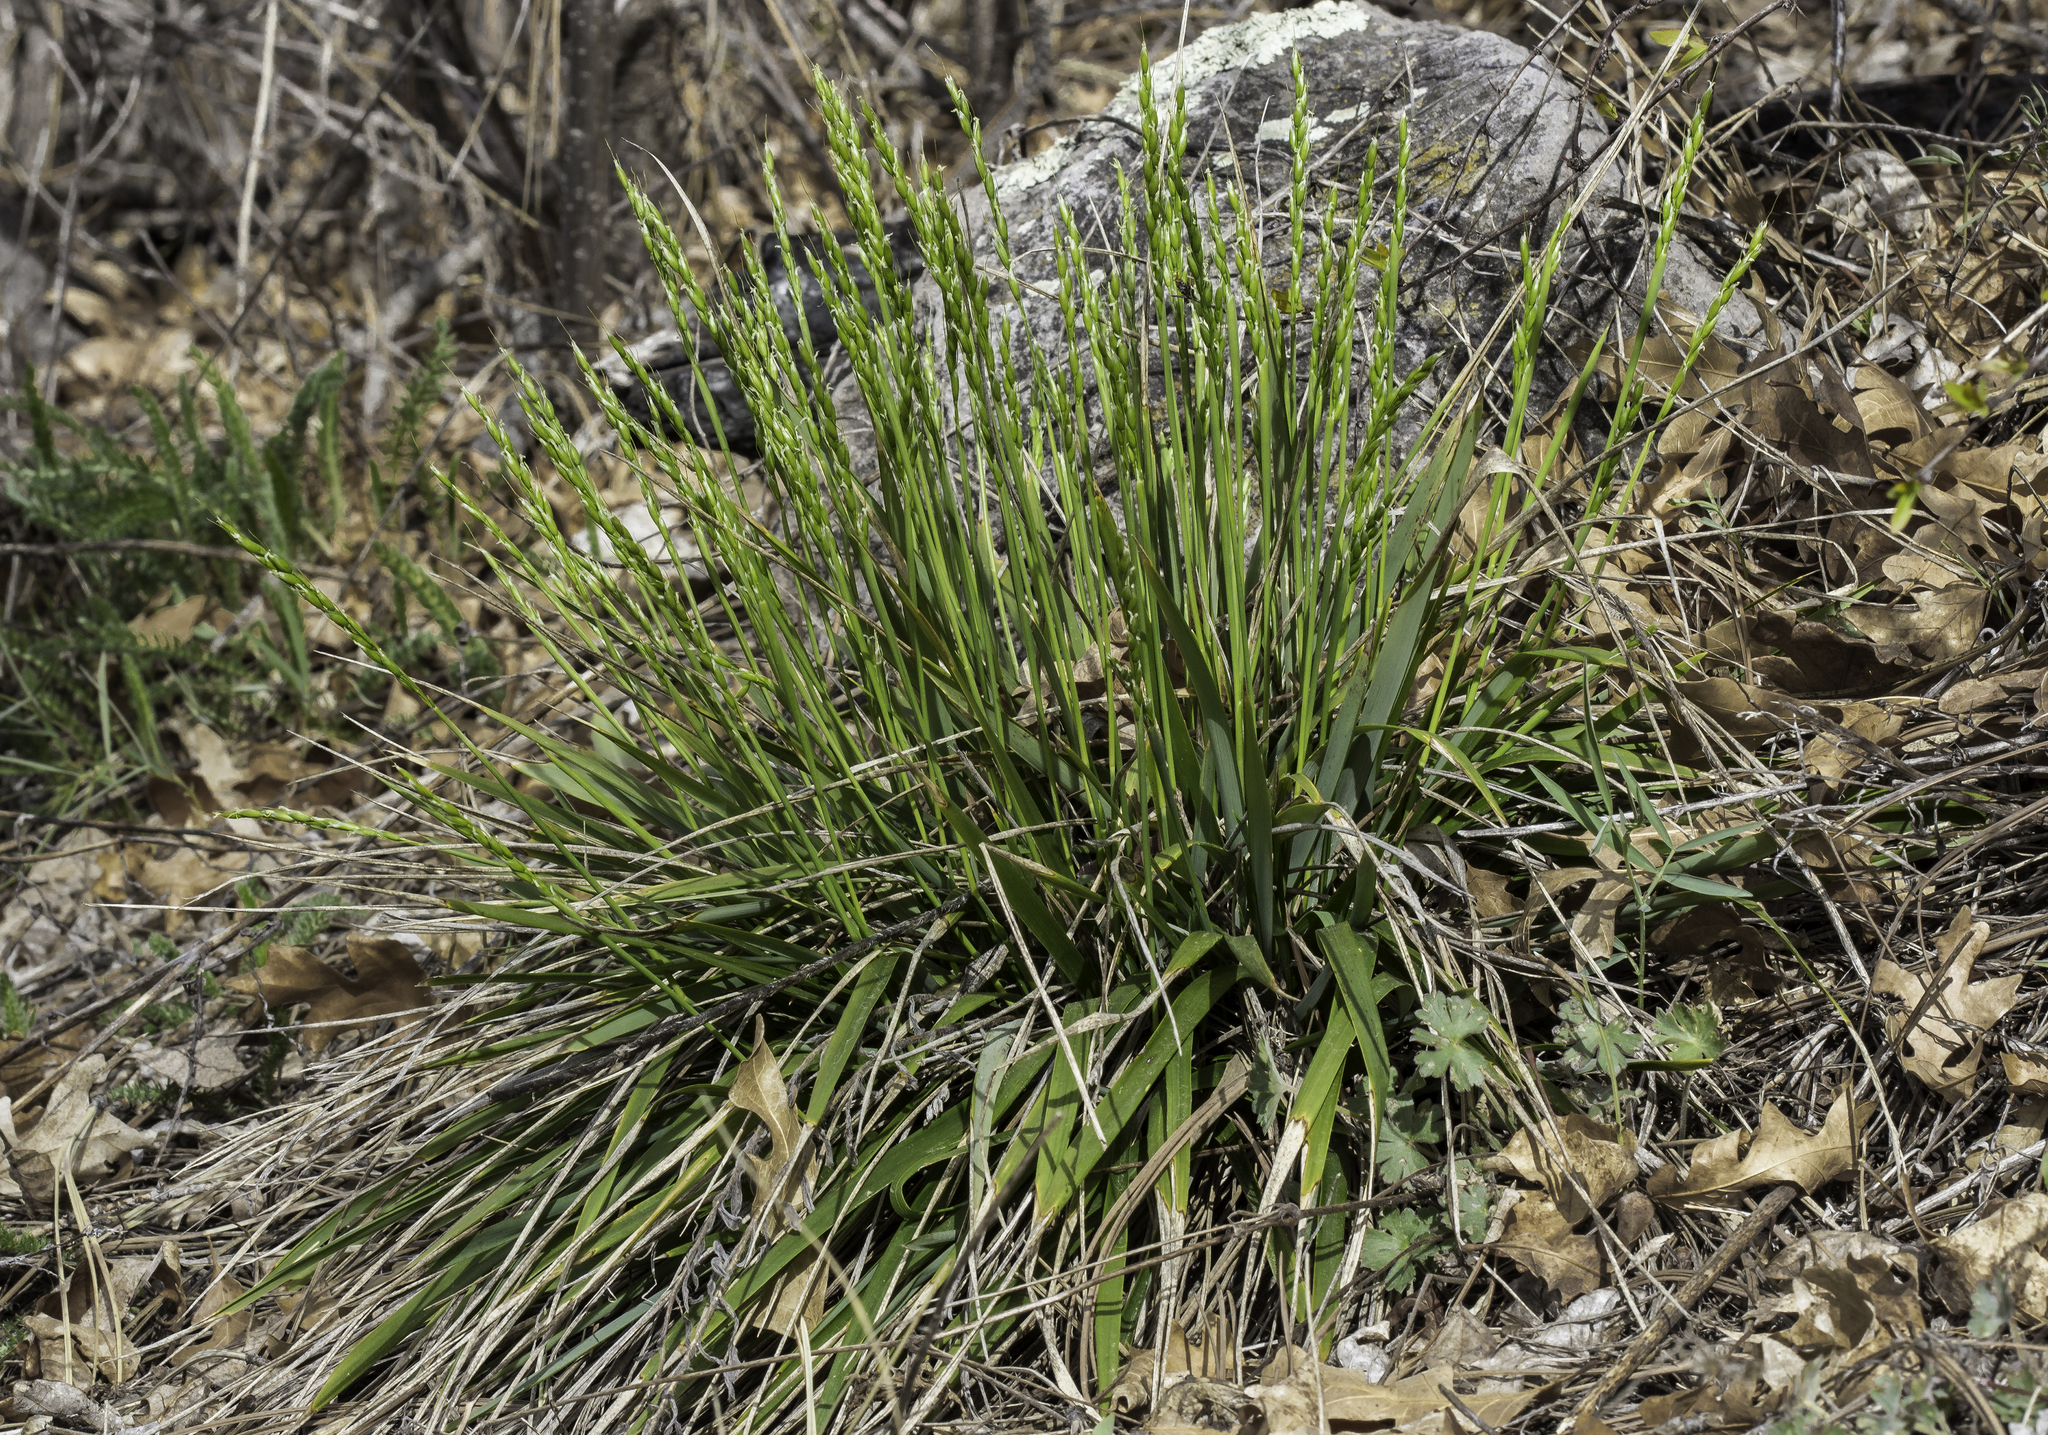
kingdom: Plantae
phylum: Tracheophyta
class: Liliopsida
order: Poales
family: Poaceae
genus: Oryzopsis
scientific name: Oryzopsis asperifolia
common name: Rough-leaved mountain rice
